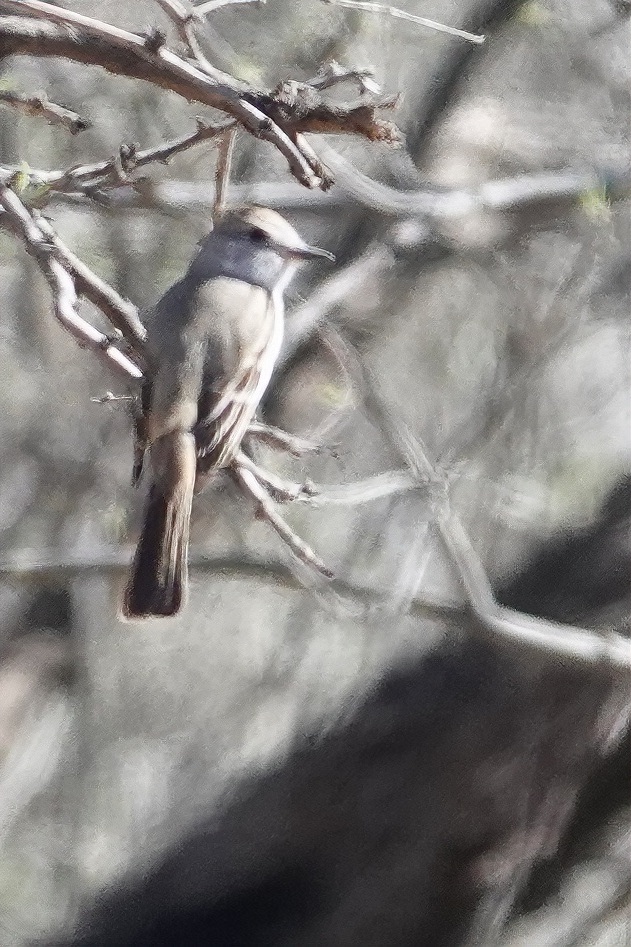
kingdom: Animalia
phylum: Chordata
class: Aves
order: Passeriformes
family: Tyrannidae
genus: Myiarchus
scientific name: Myiarchus cinerascens
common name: Ash-throated flycatcher
